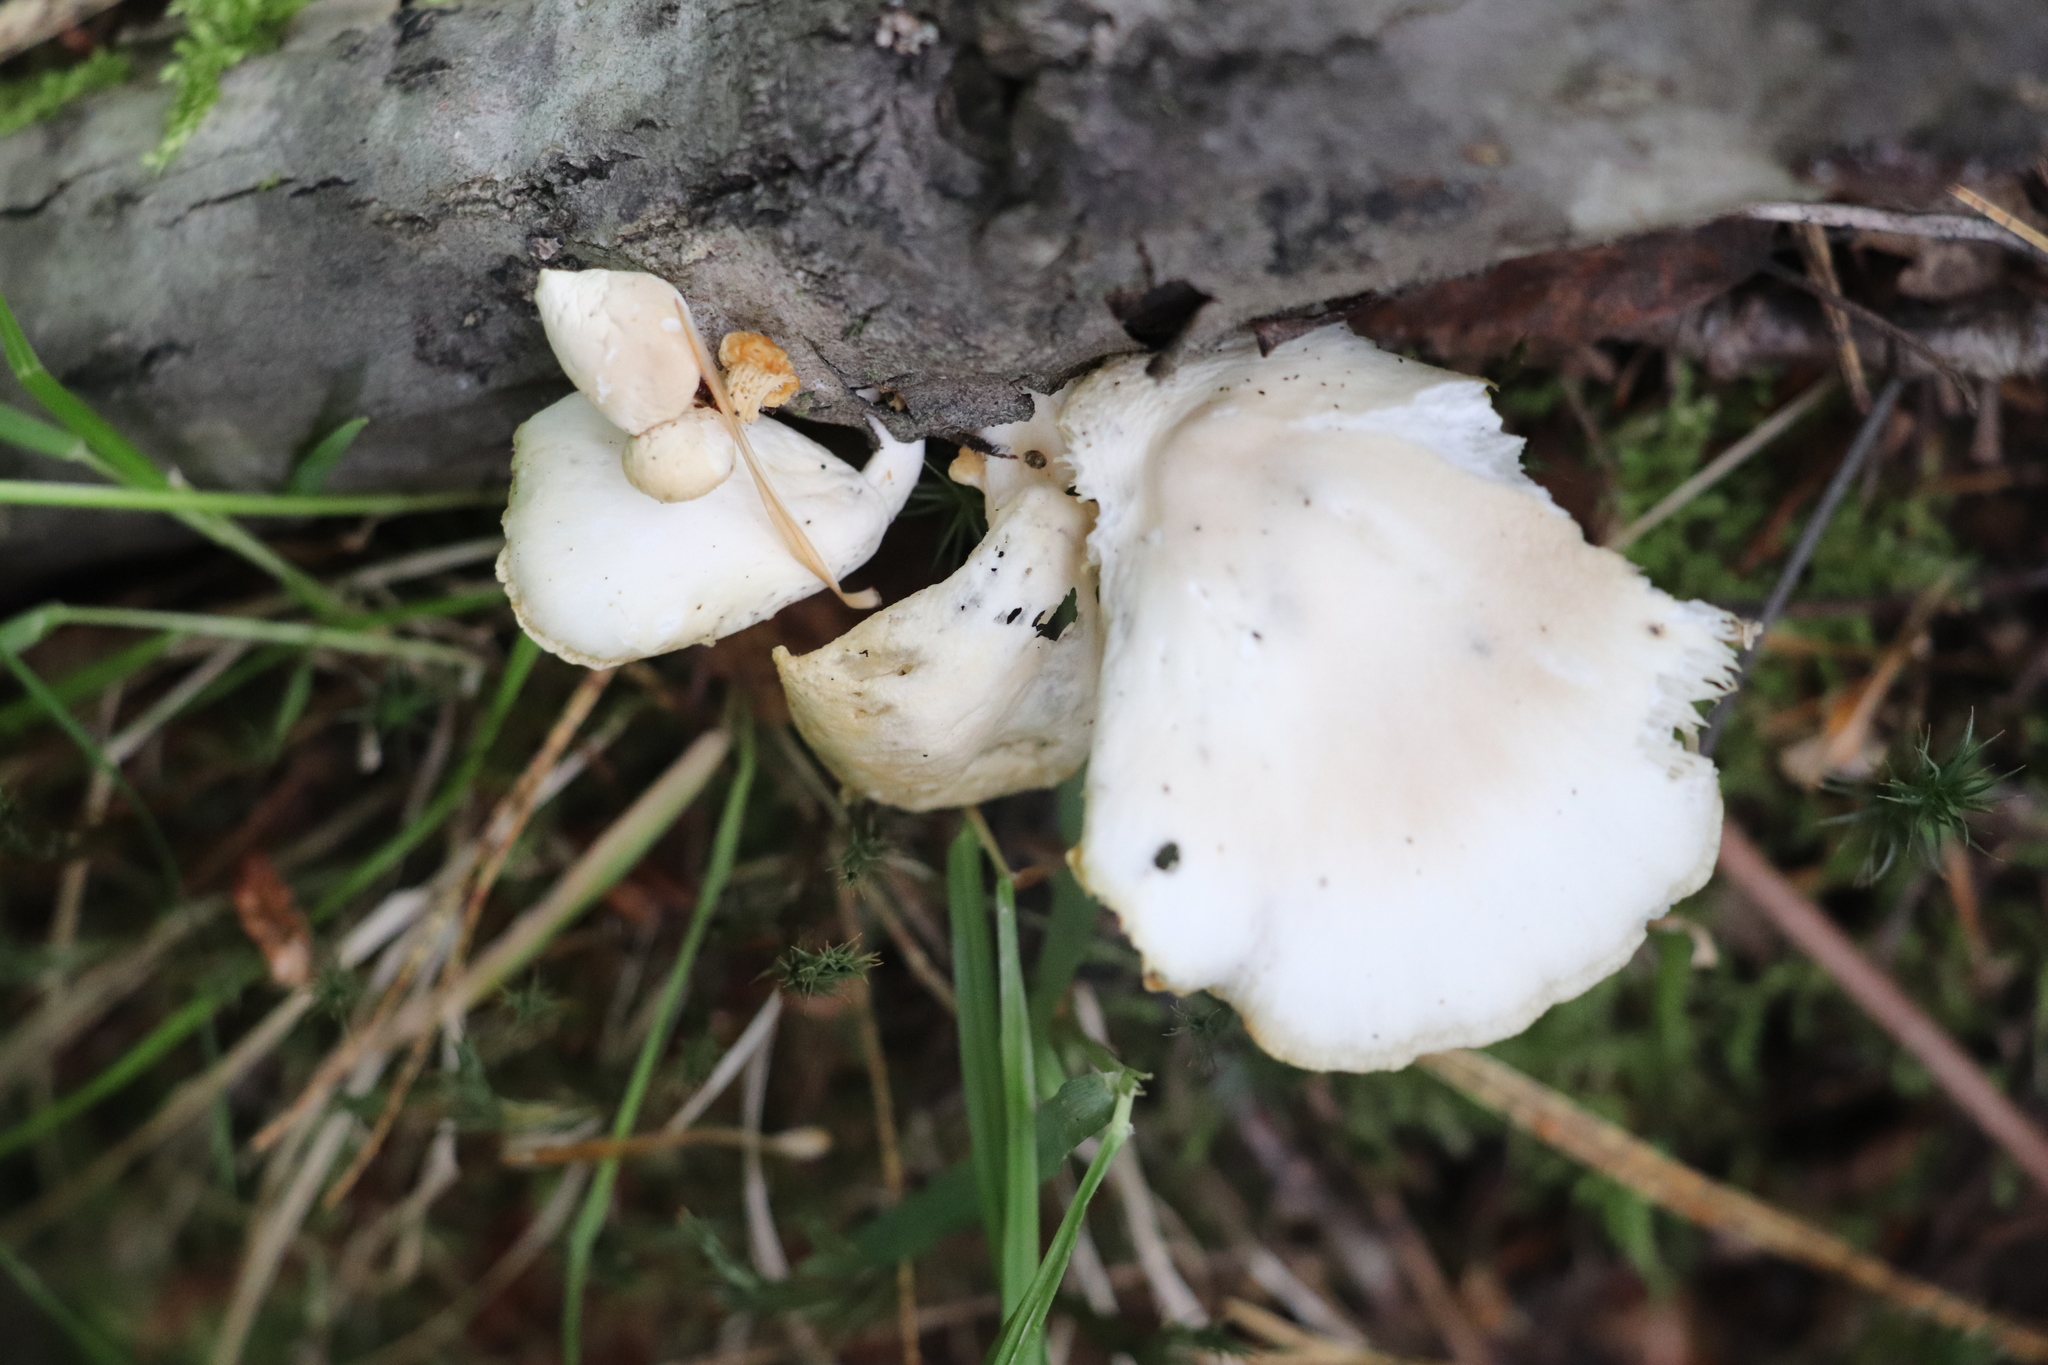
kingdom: Fungi
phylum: Basidiomycota
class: Agaricomycetes
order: Agaricales
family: Pleurotaceae
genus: Pleurotus
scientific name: Pleurotus pulmonarius
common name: Pale oyster
